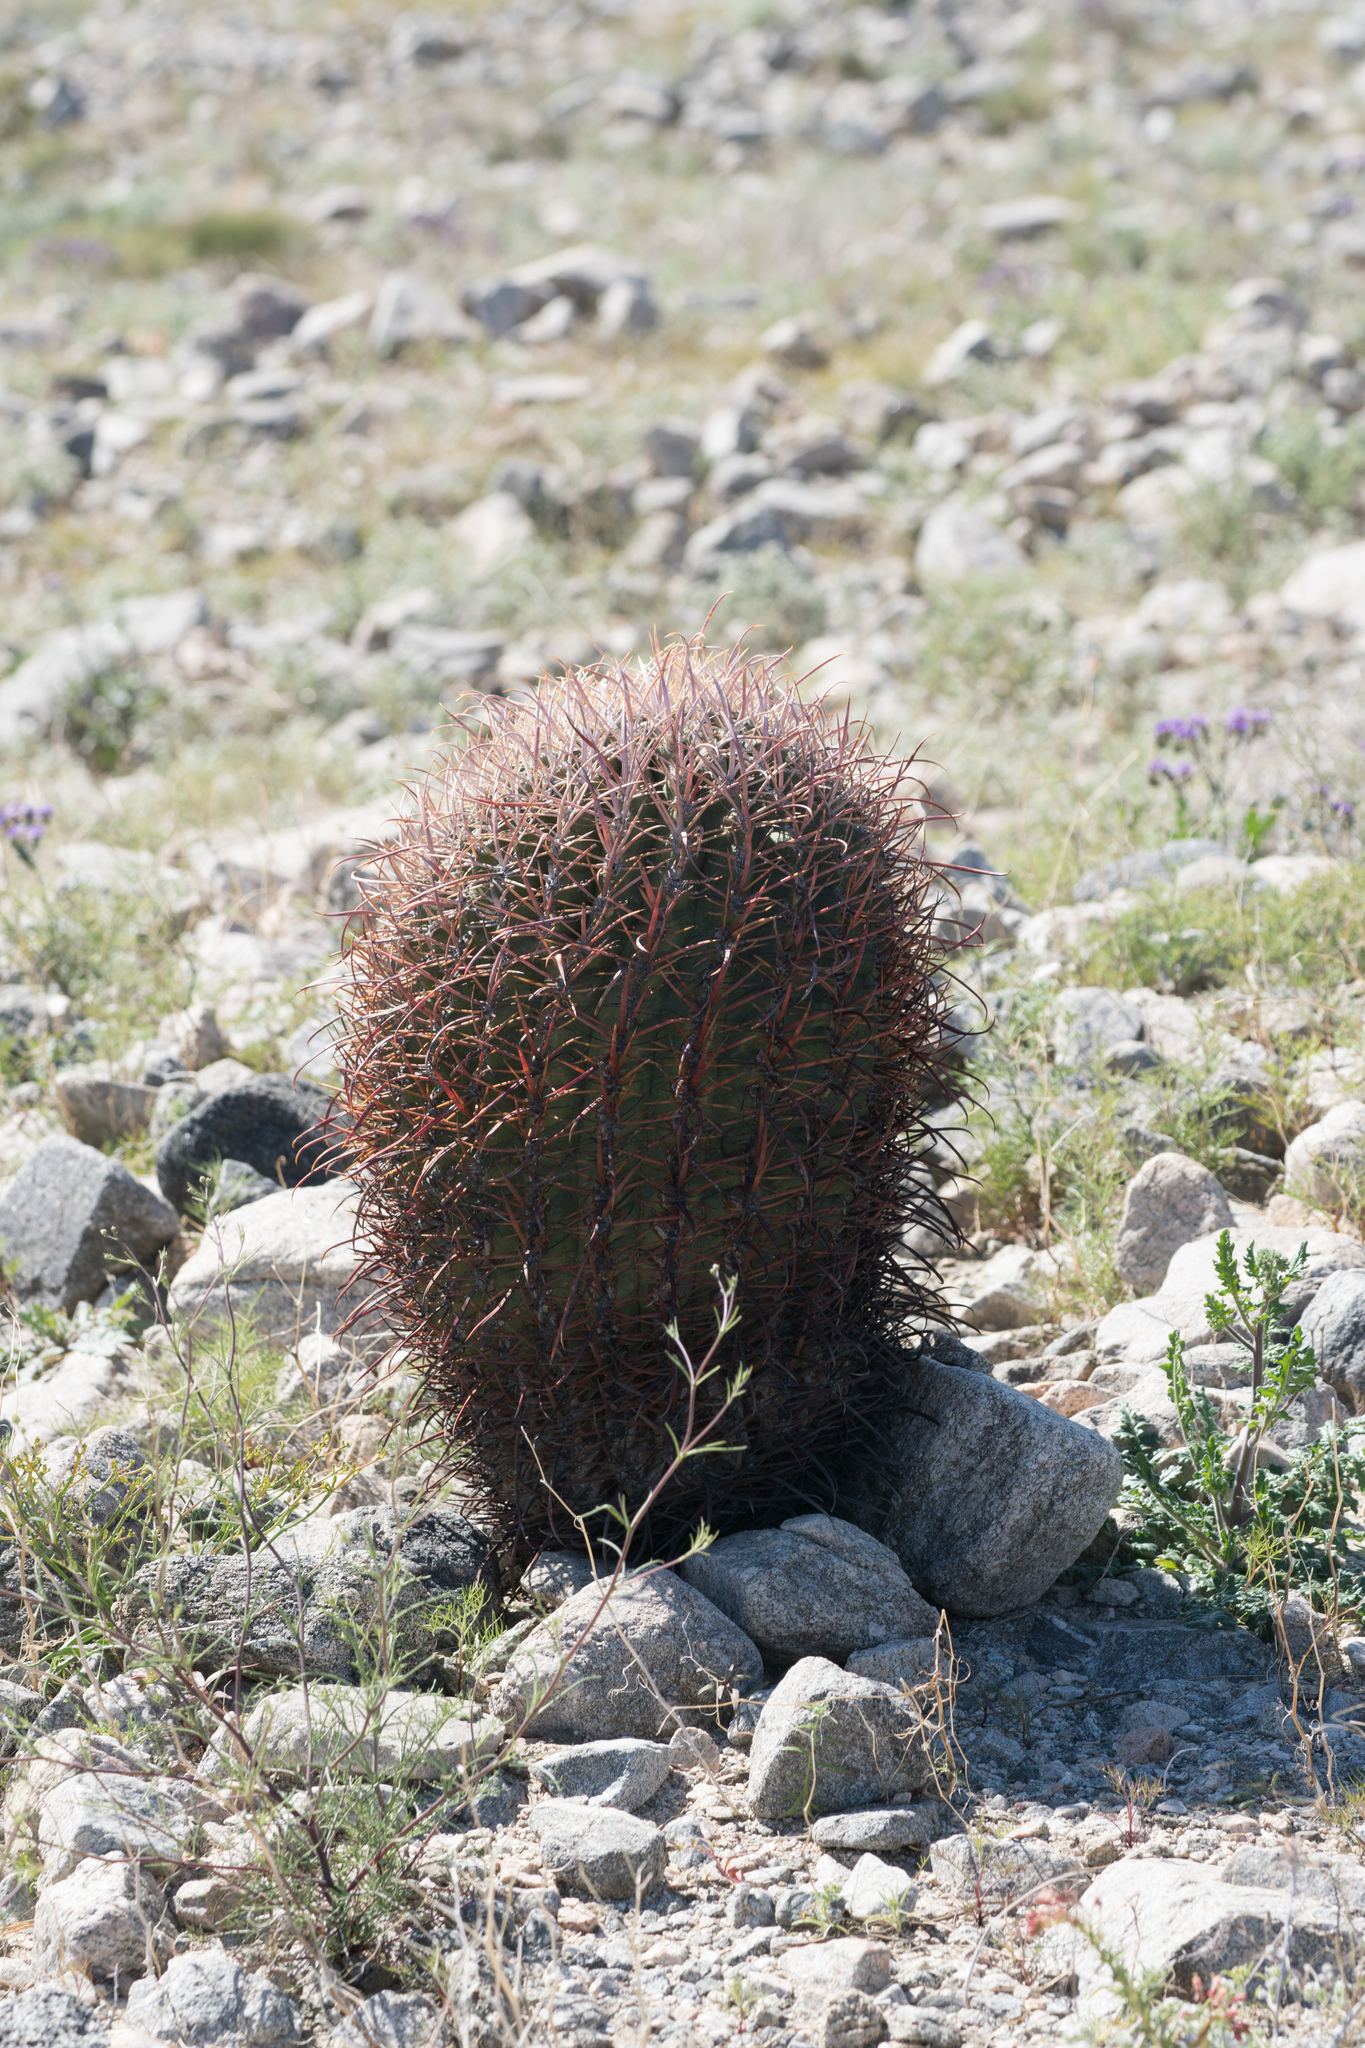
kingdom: Plantae
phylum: Tracheophyta
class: Magnoliopsida
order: Caryophyllales
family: Cactaceae
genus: Ferocactus
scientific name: Ferocactus cylindraceus
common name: California barrel cactus
